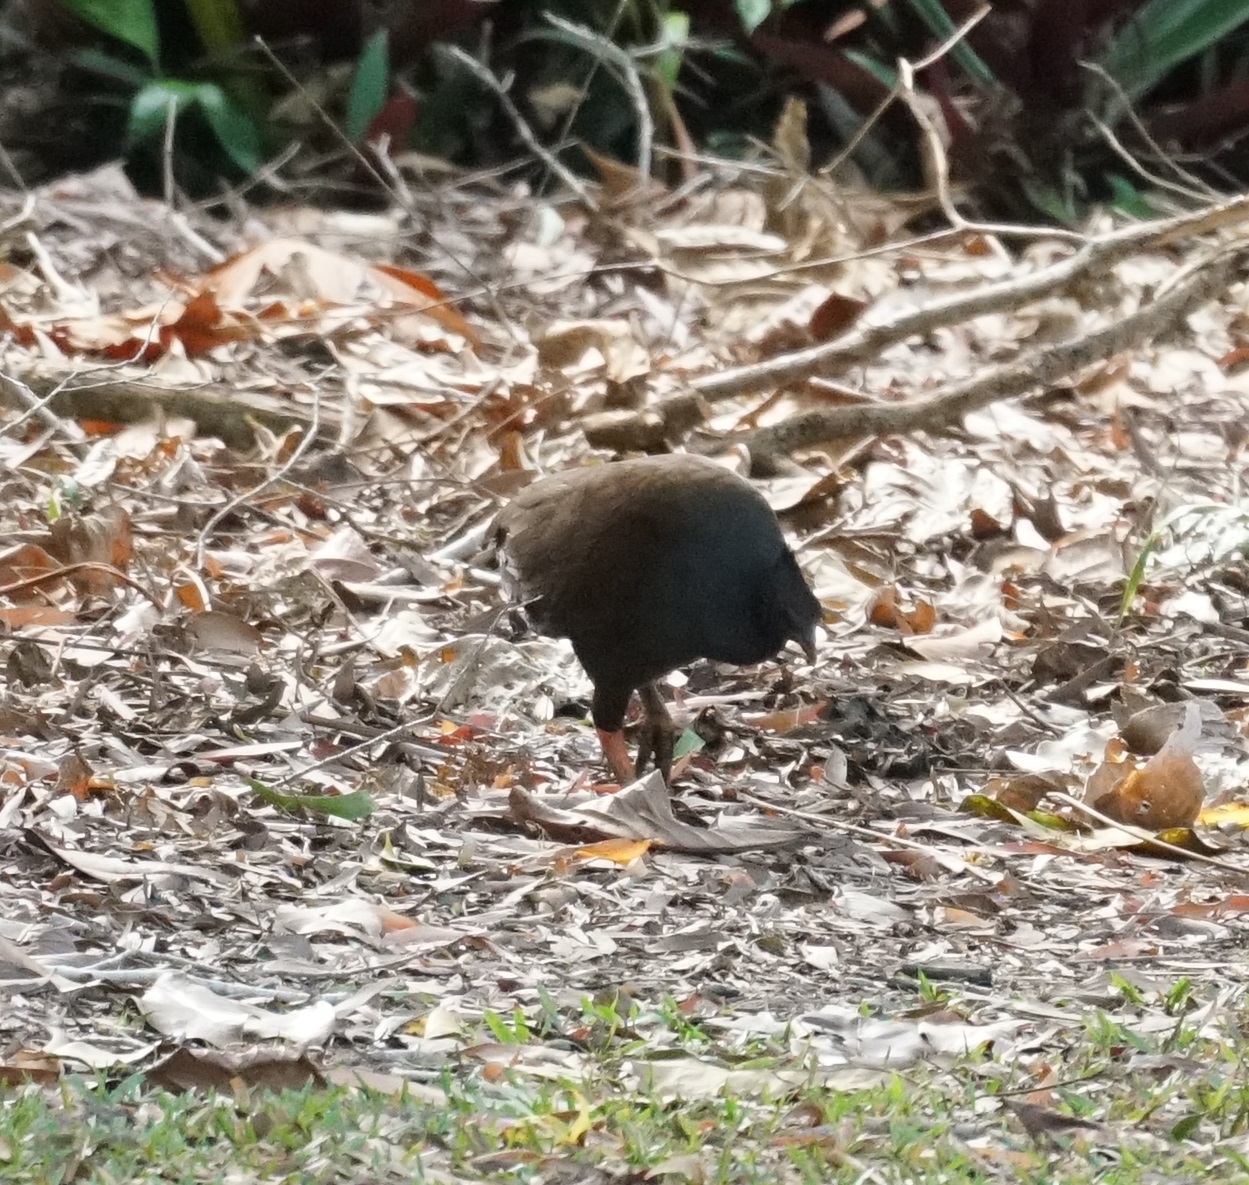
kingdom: Animalia
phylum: Chordata
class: Aves
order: Galliformes
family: Megapodiidae
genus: Megapodius
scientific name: Megapodius reinwardt
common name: Orange-footed scrubfowl
